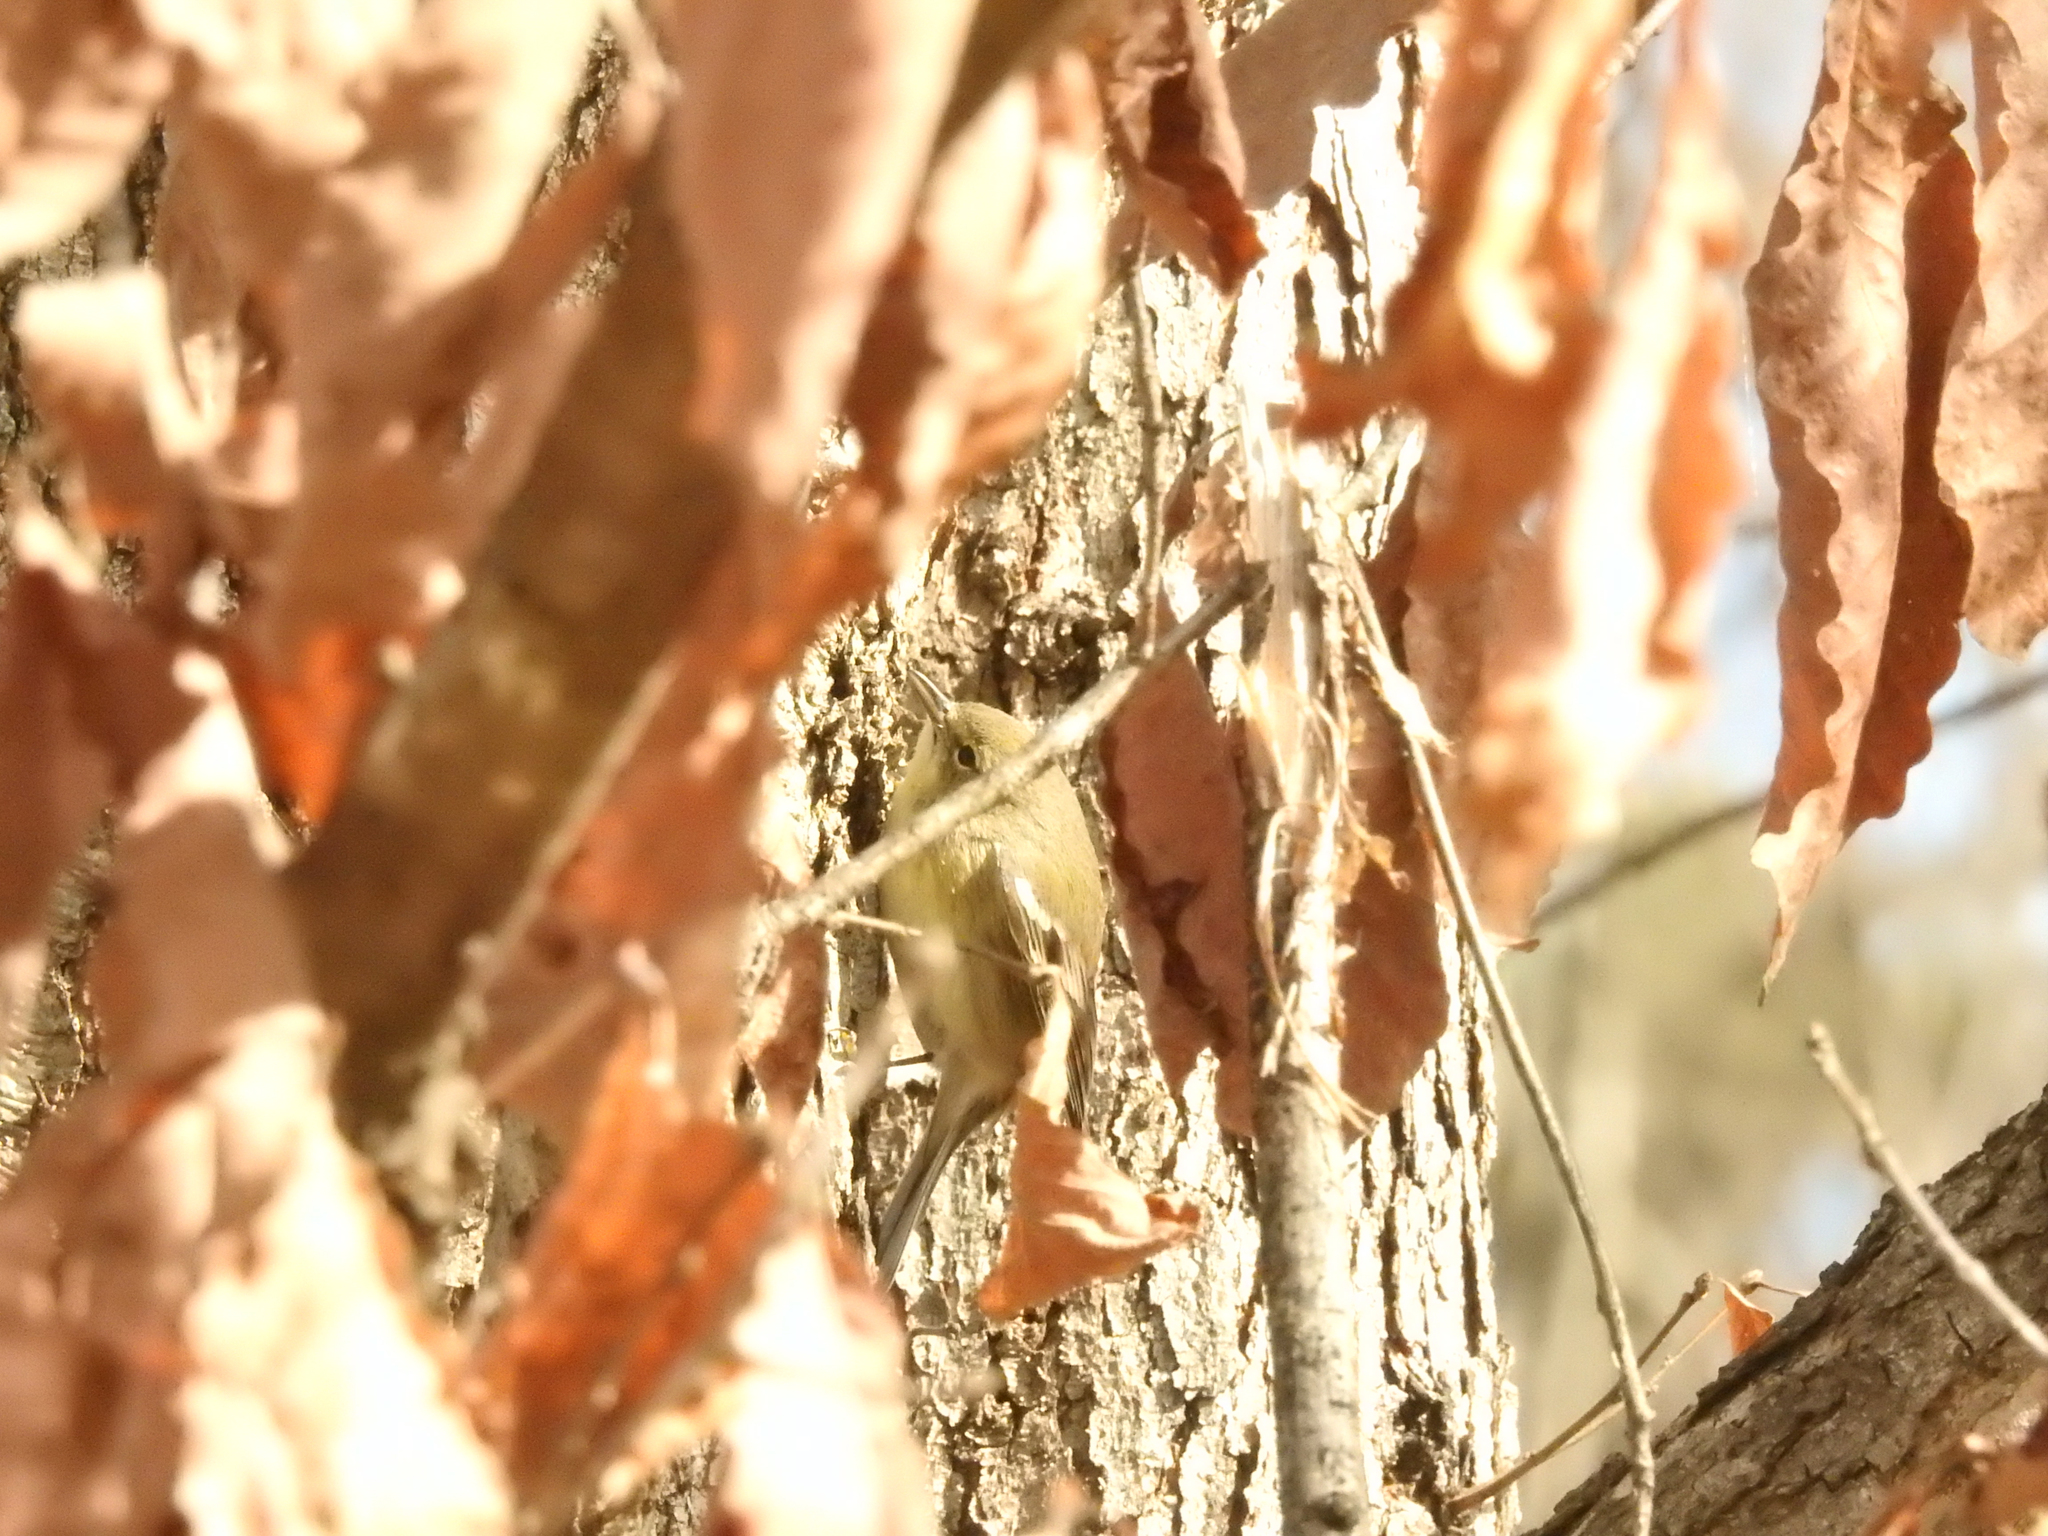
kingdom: Animalia
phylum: Chordata
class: Aves
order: Passeriformes
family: Parulidae
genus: Setophaga
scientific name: Setophaga pinus
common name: Pine warbler
